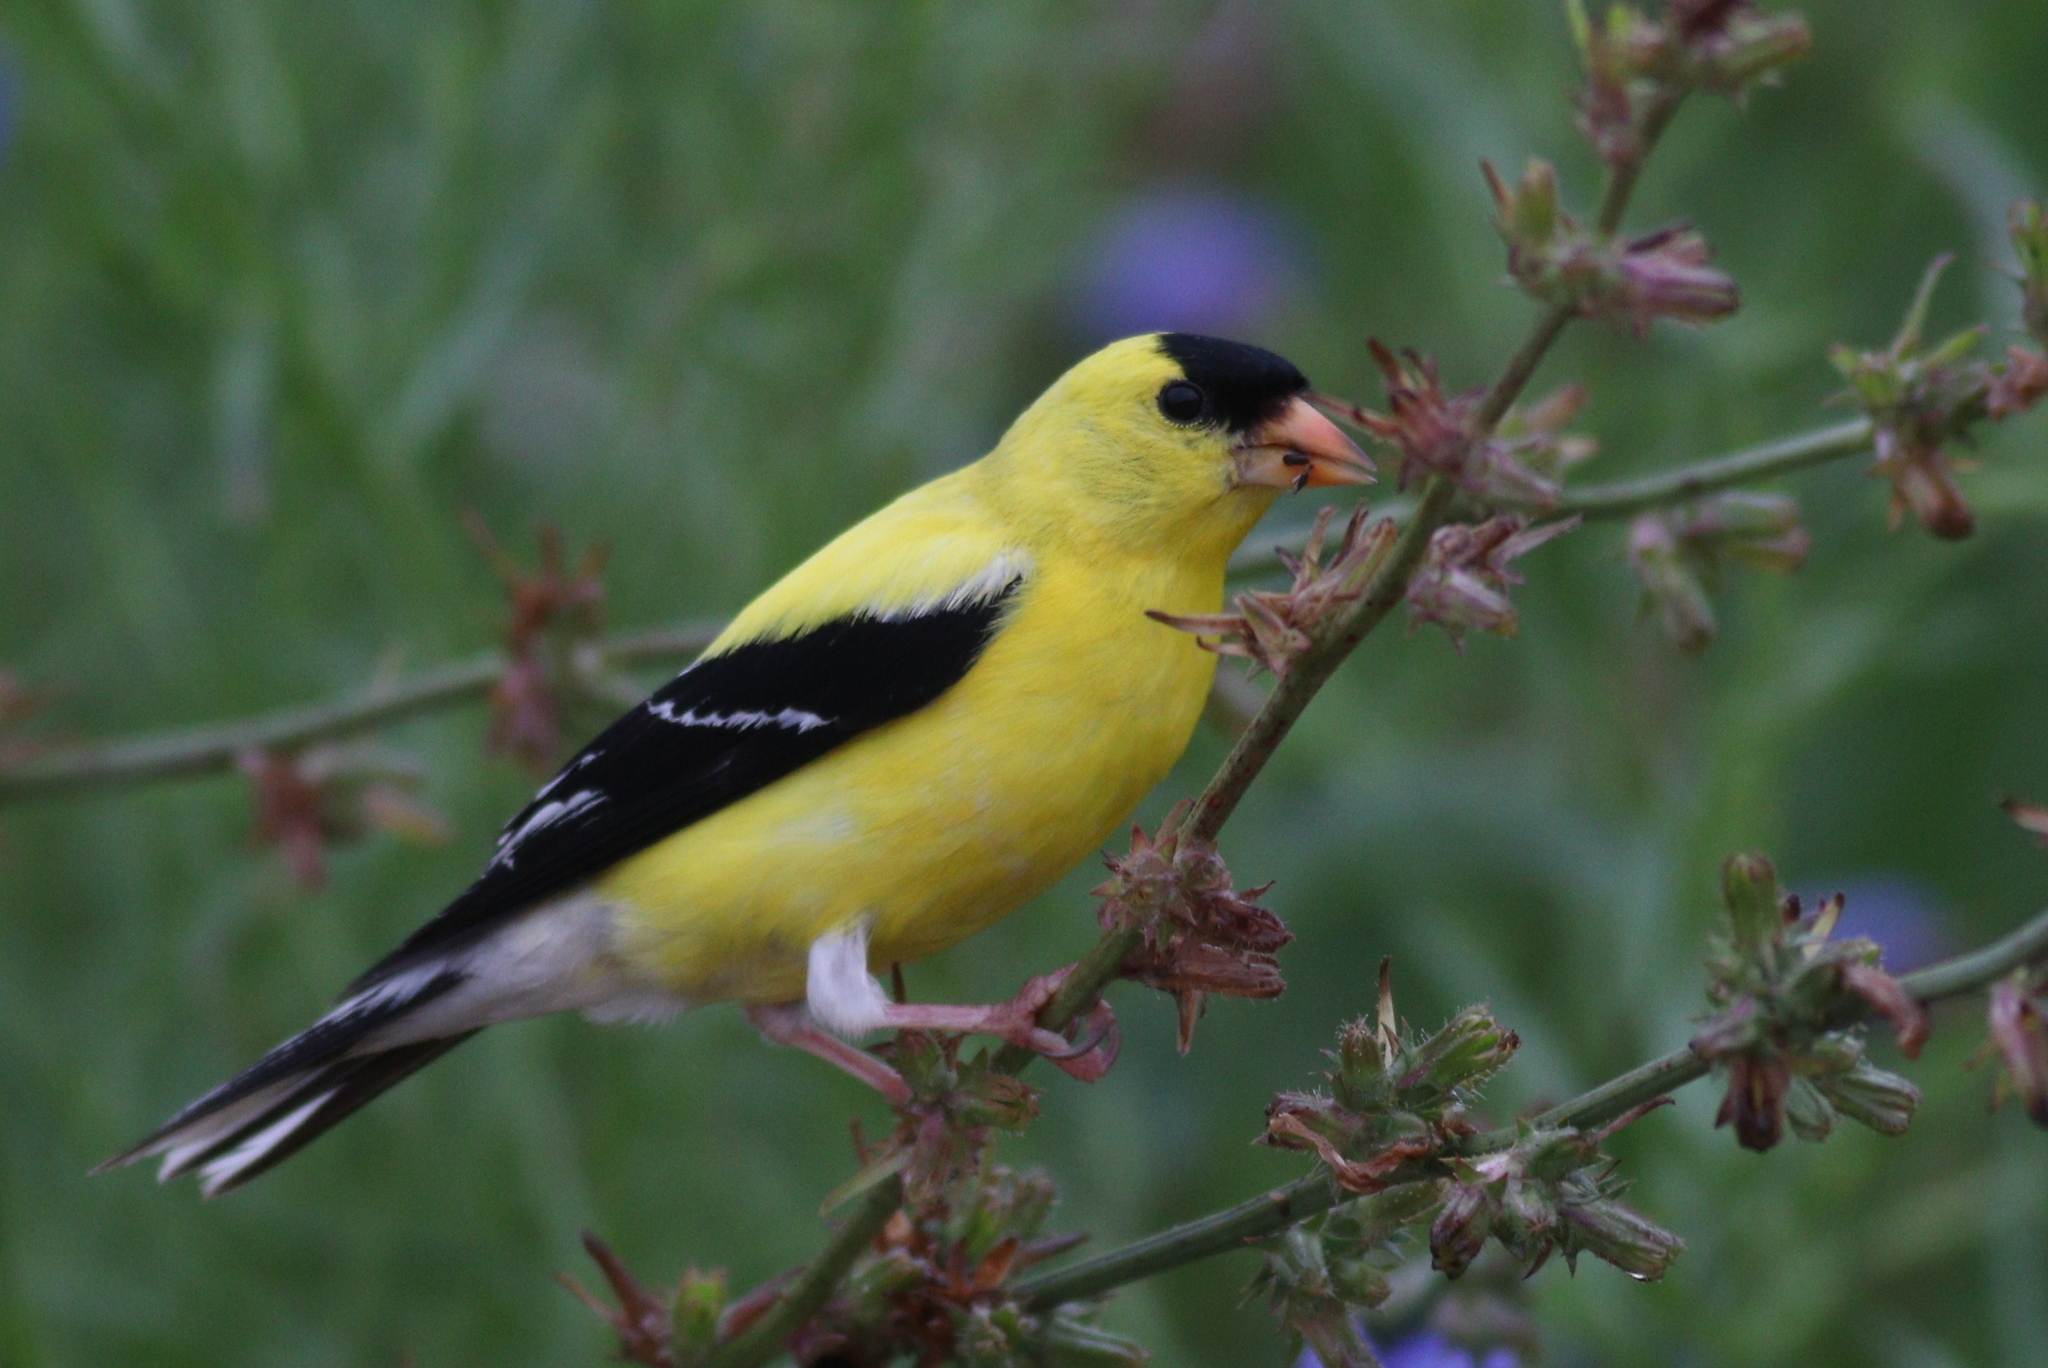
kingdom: Animalia
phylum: Chordata
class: Aves
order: Passeriformes
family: Fringillidae
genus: Spinus
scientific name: Spinus tristis
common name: American goldfinch
